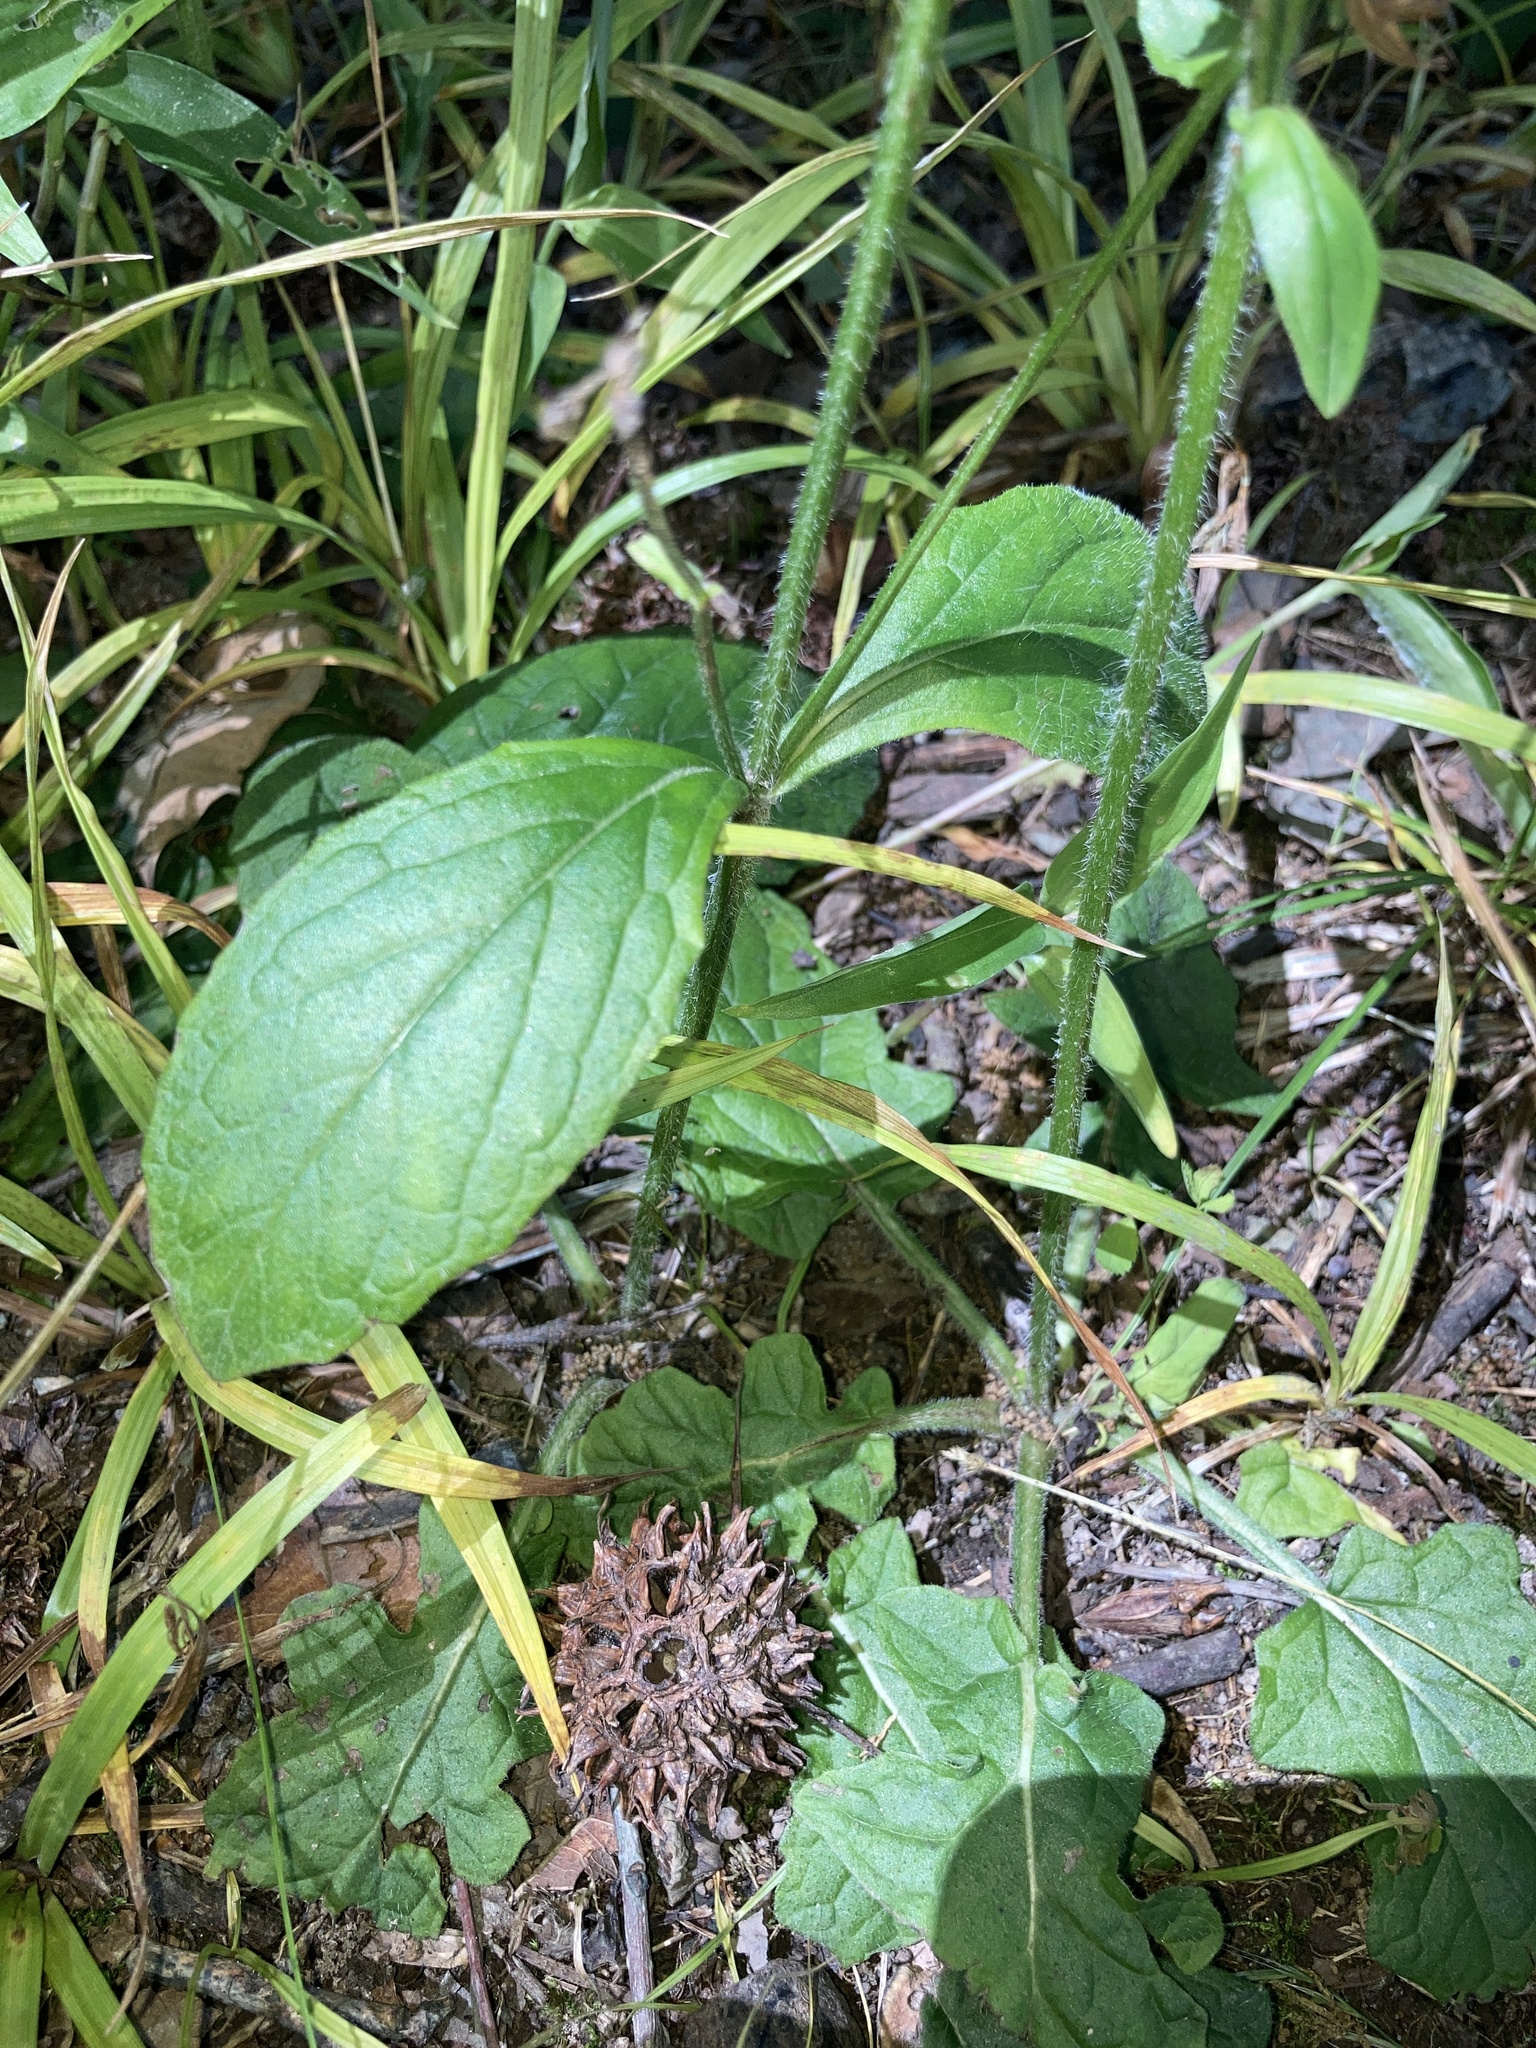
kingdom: Plantae
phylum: Tracheophyta
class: Magnoliopsida
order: Lamiales
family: Lamiaceae
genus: Salvia
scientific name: Salvia lyrata
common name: Cancerweed
